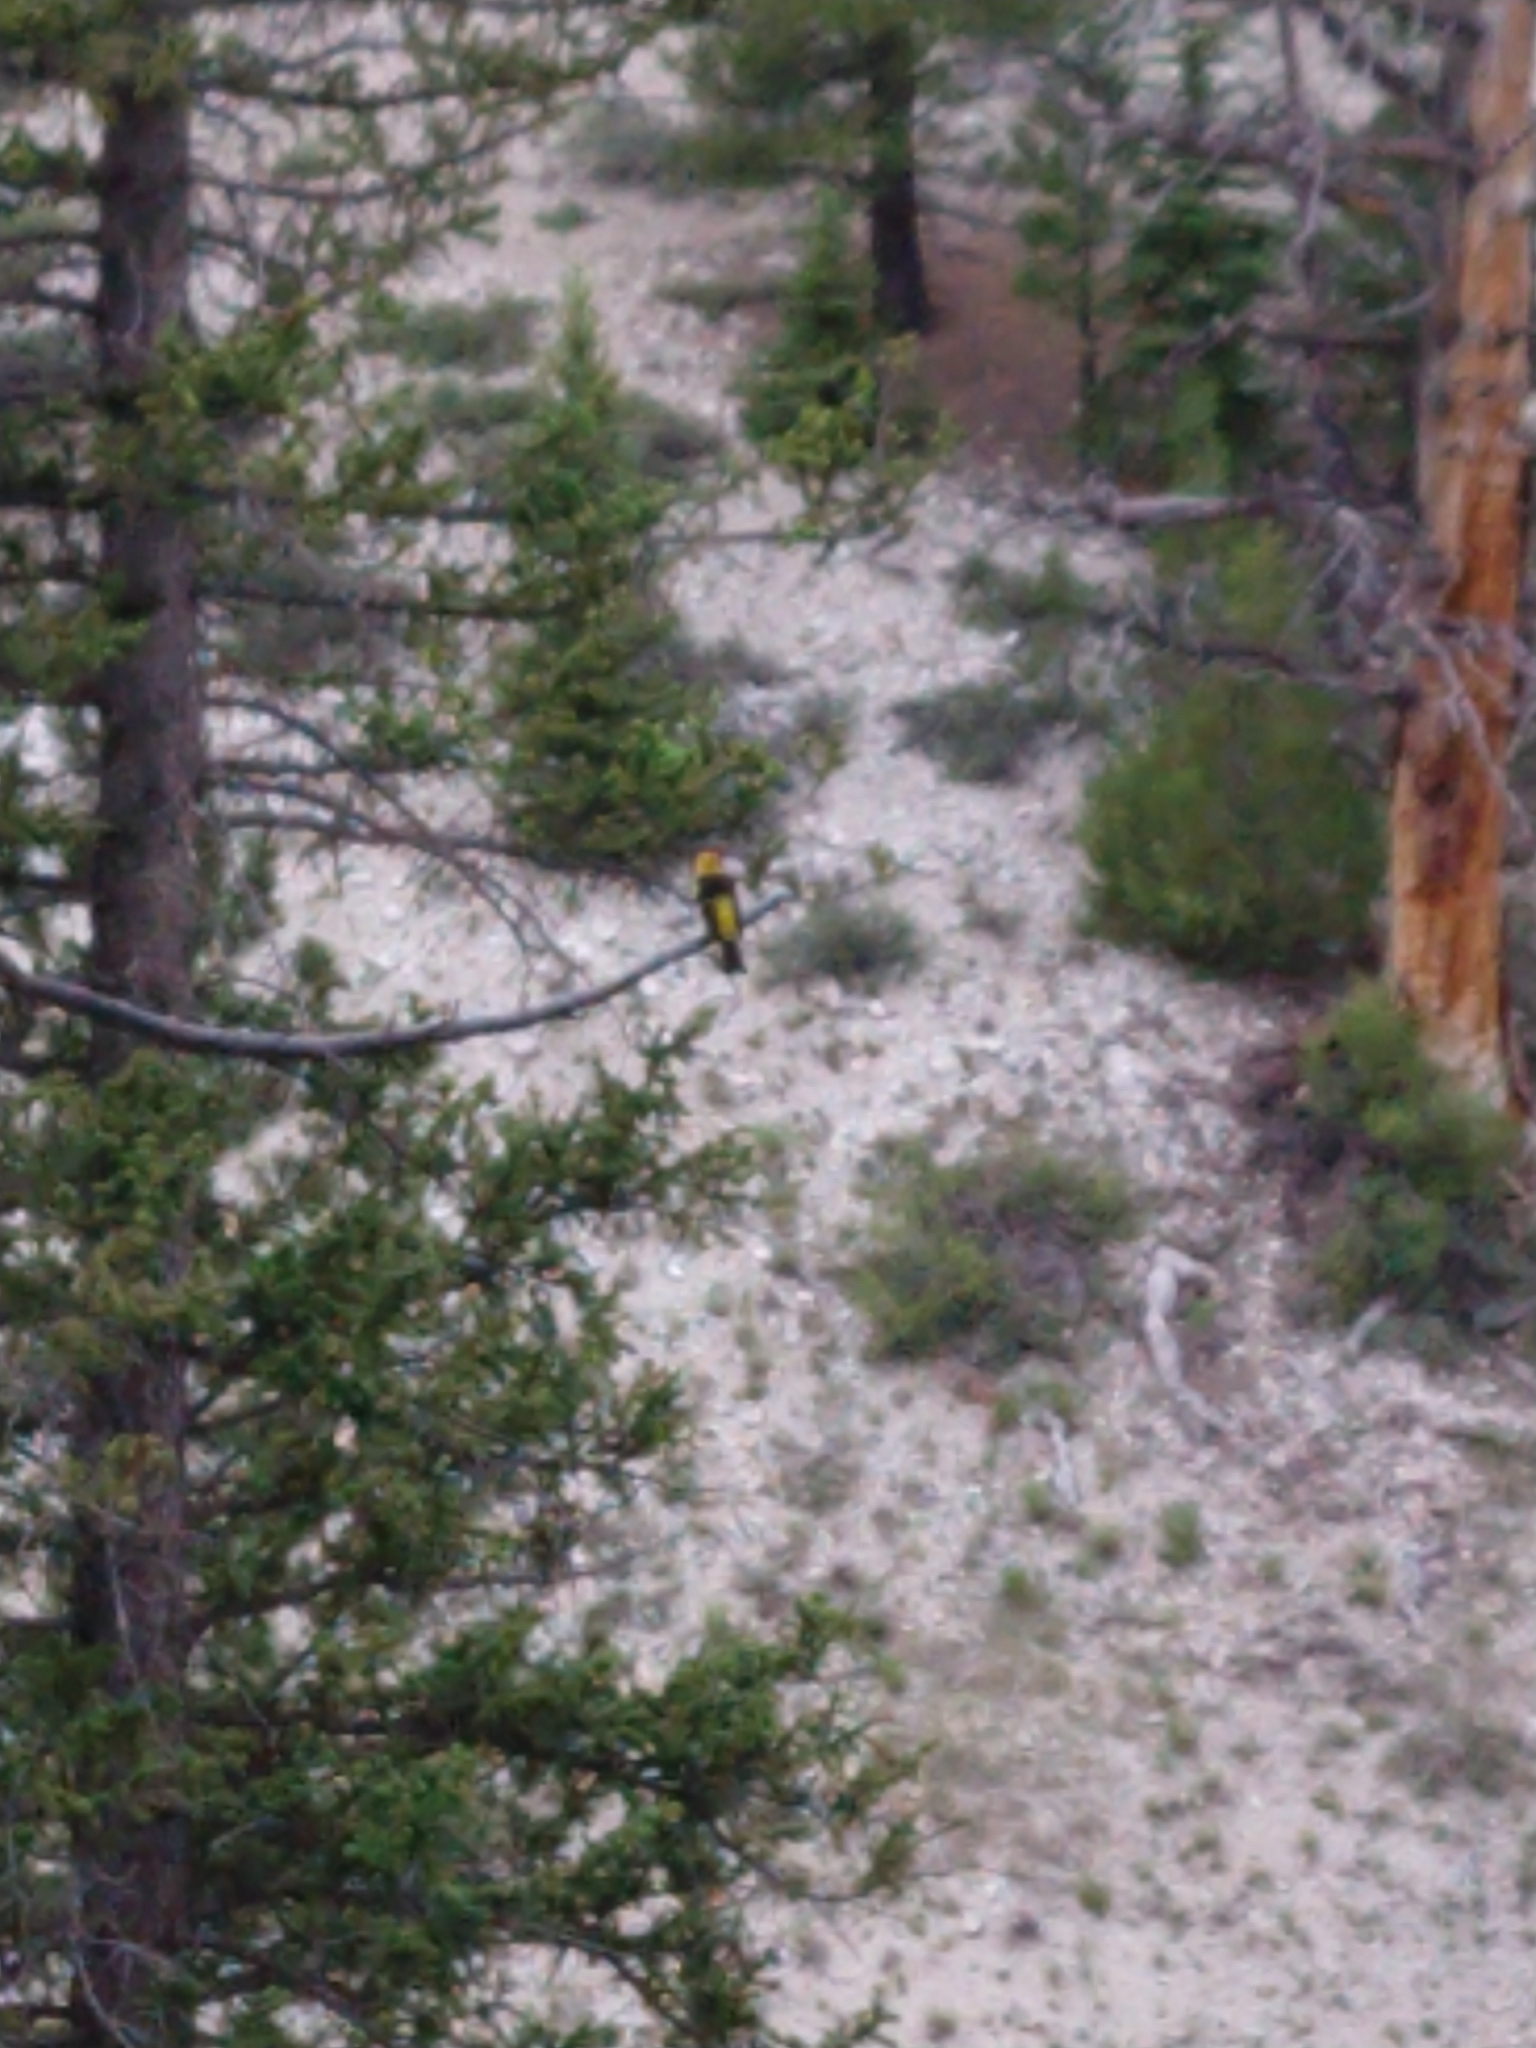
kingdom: Animalia
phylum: Chordata
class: Aves
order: Passeriformes
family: Cardinalidae
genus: Piranga
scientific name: Piranga ludoviciana
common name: Western tanager
